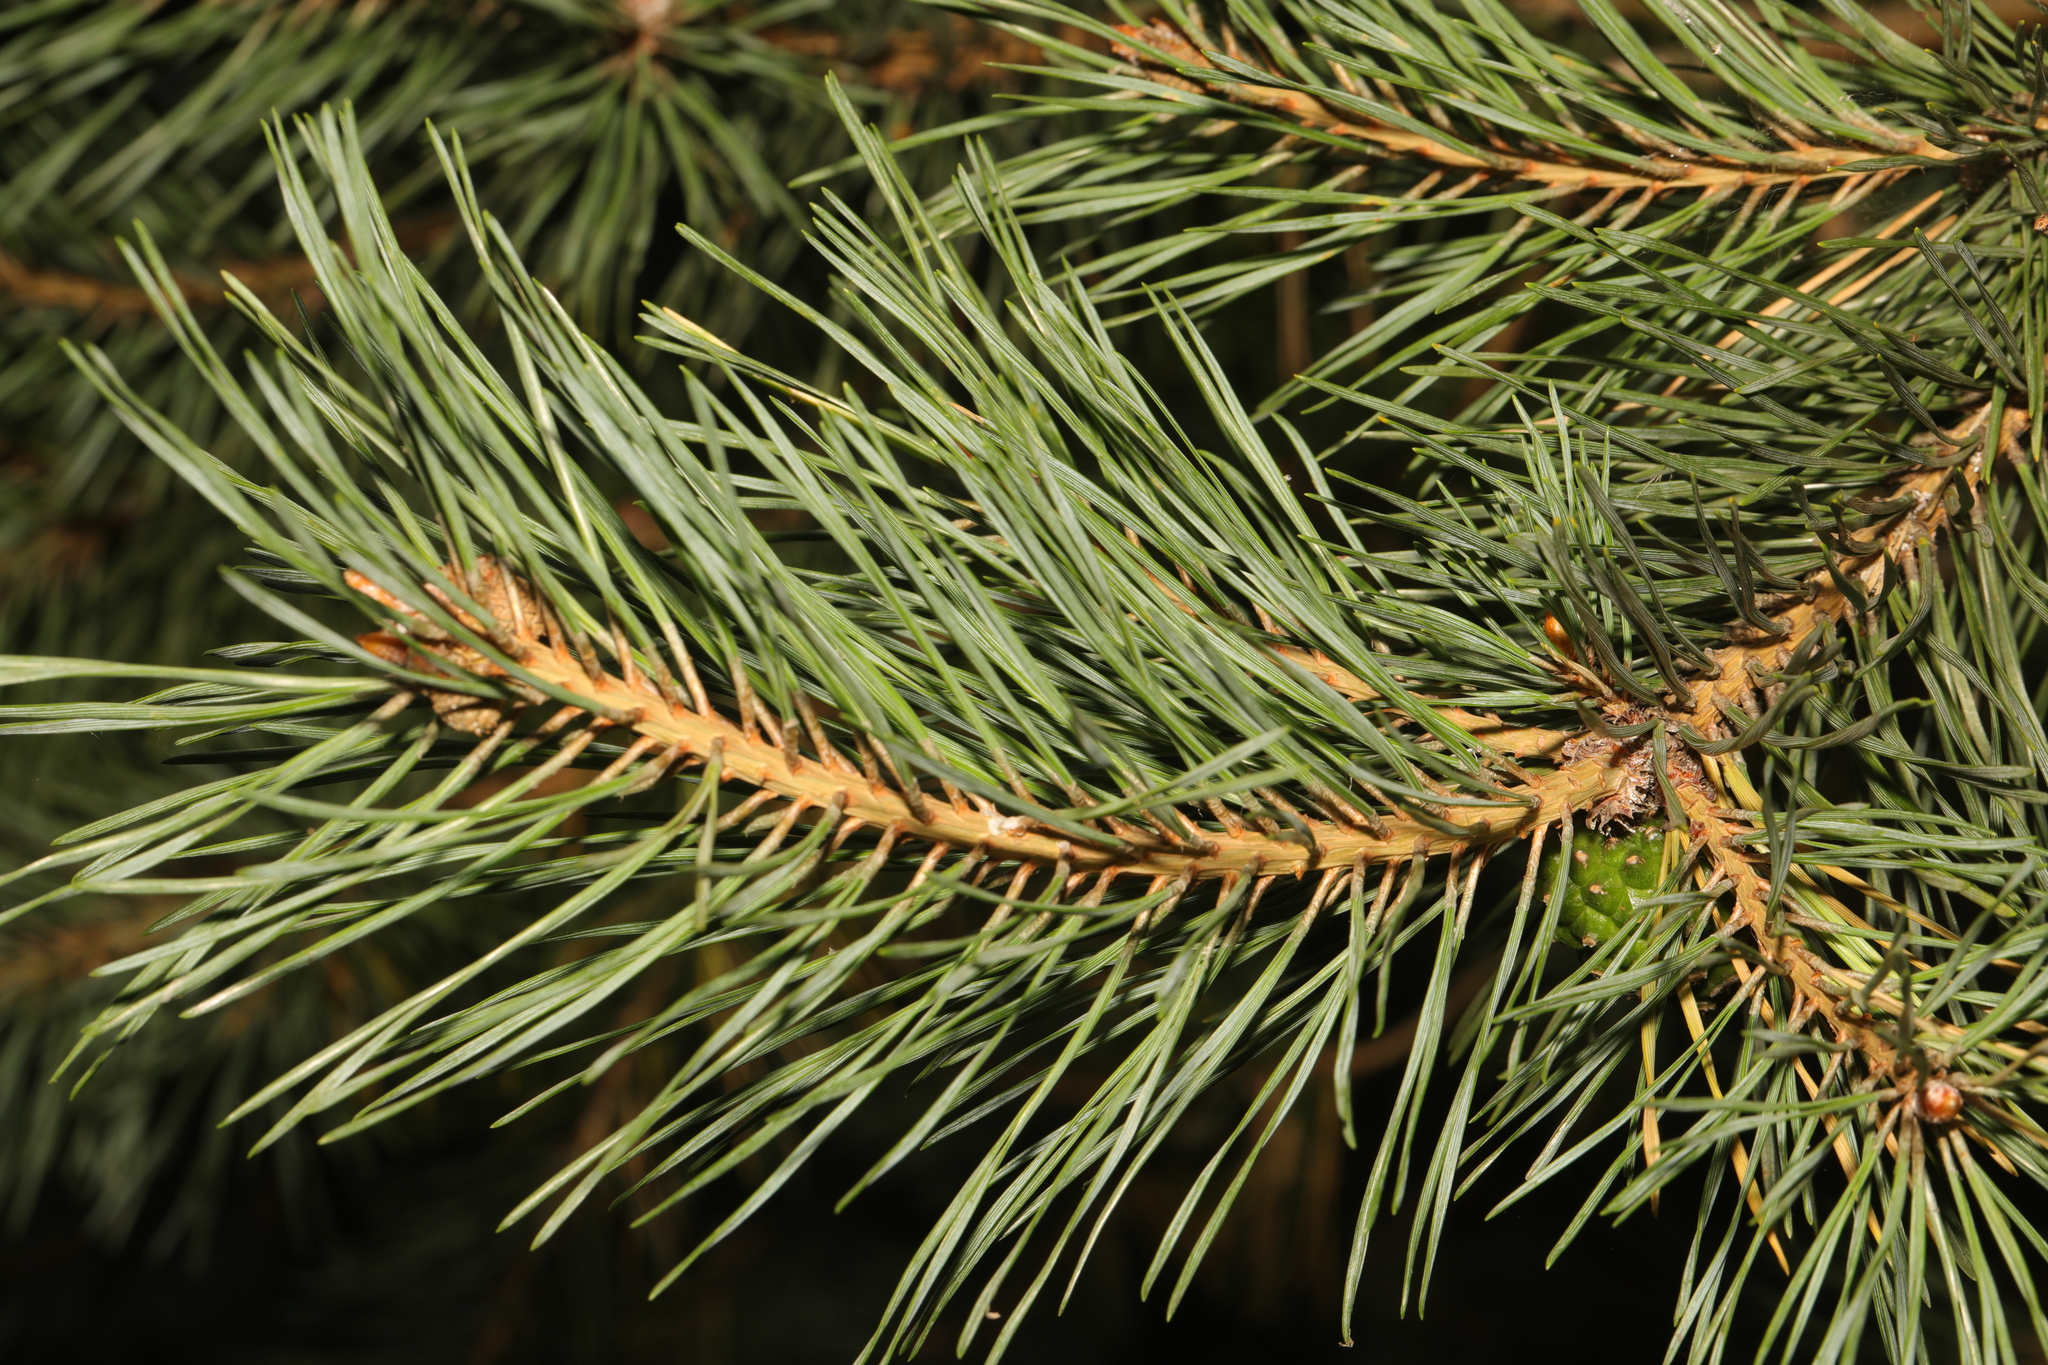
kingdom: Plantae
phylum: Tracheophyta
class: Pinopsida
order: Pinales
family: Pinaceae
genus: Pinus
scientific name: Pinus sylvestris
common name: Scots pine
